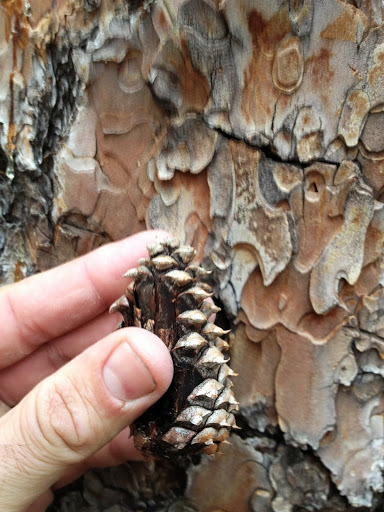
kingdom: Plantae
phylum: Tracheophyta
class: Pinopsida
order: Pinales
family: Pinaceae
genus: Pinus
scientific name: Pinus ponderosa
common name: Western yellow-pine
